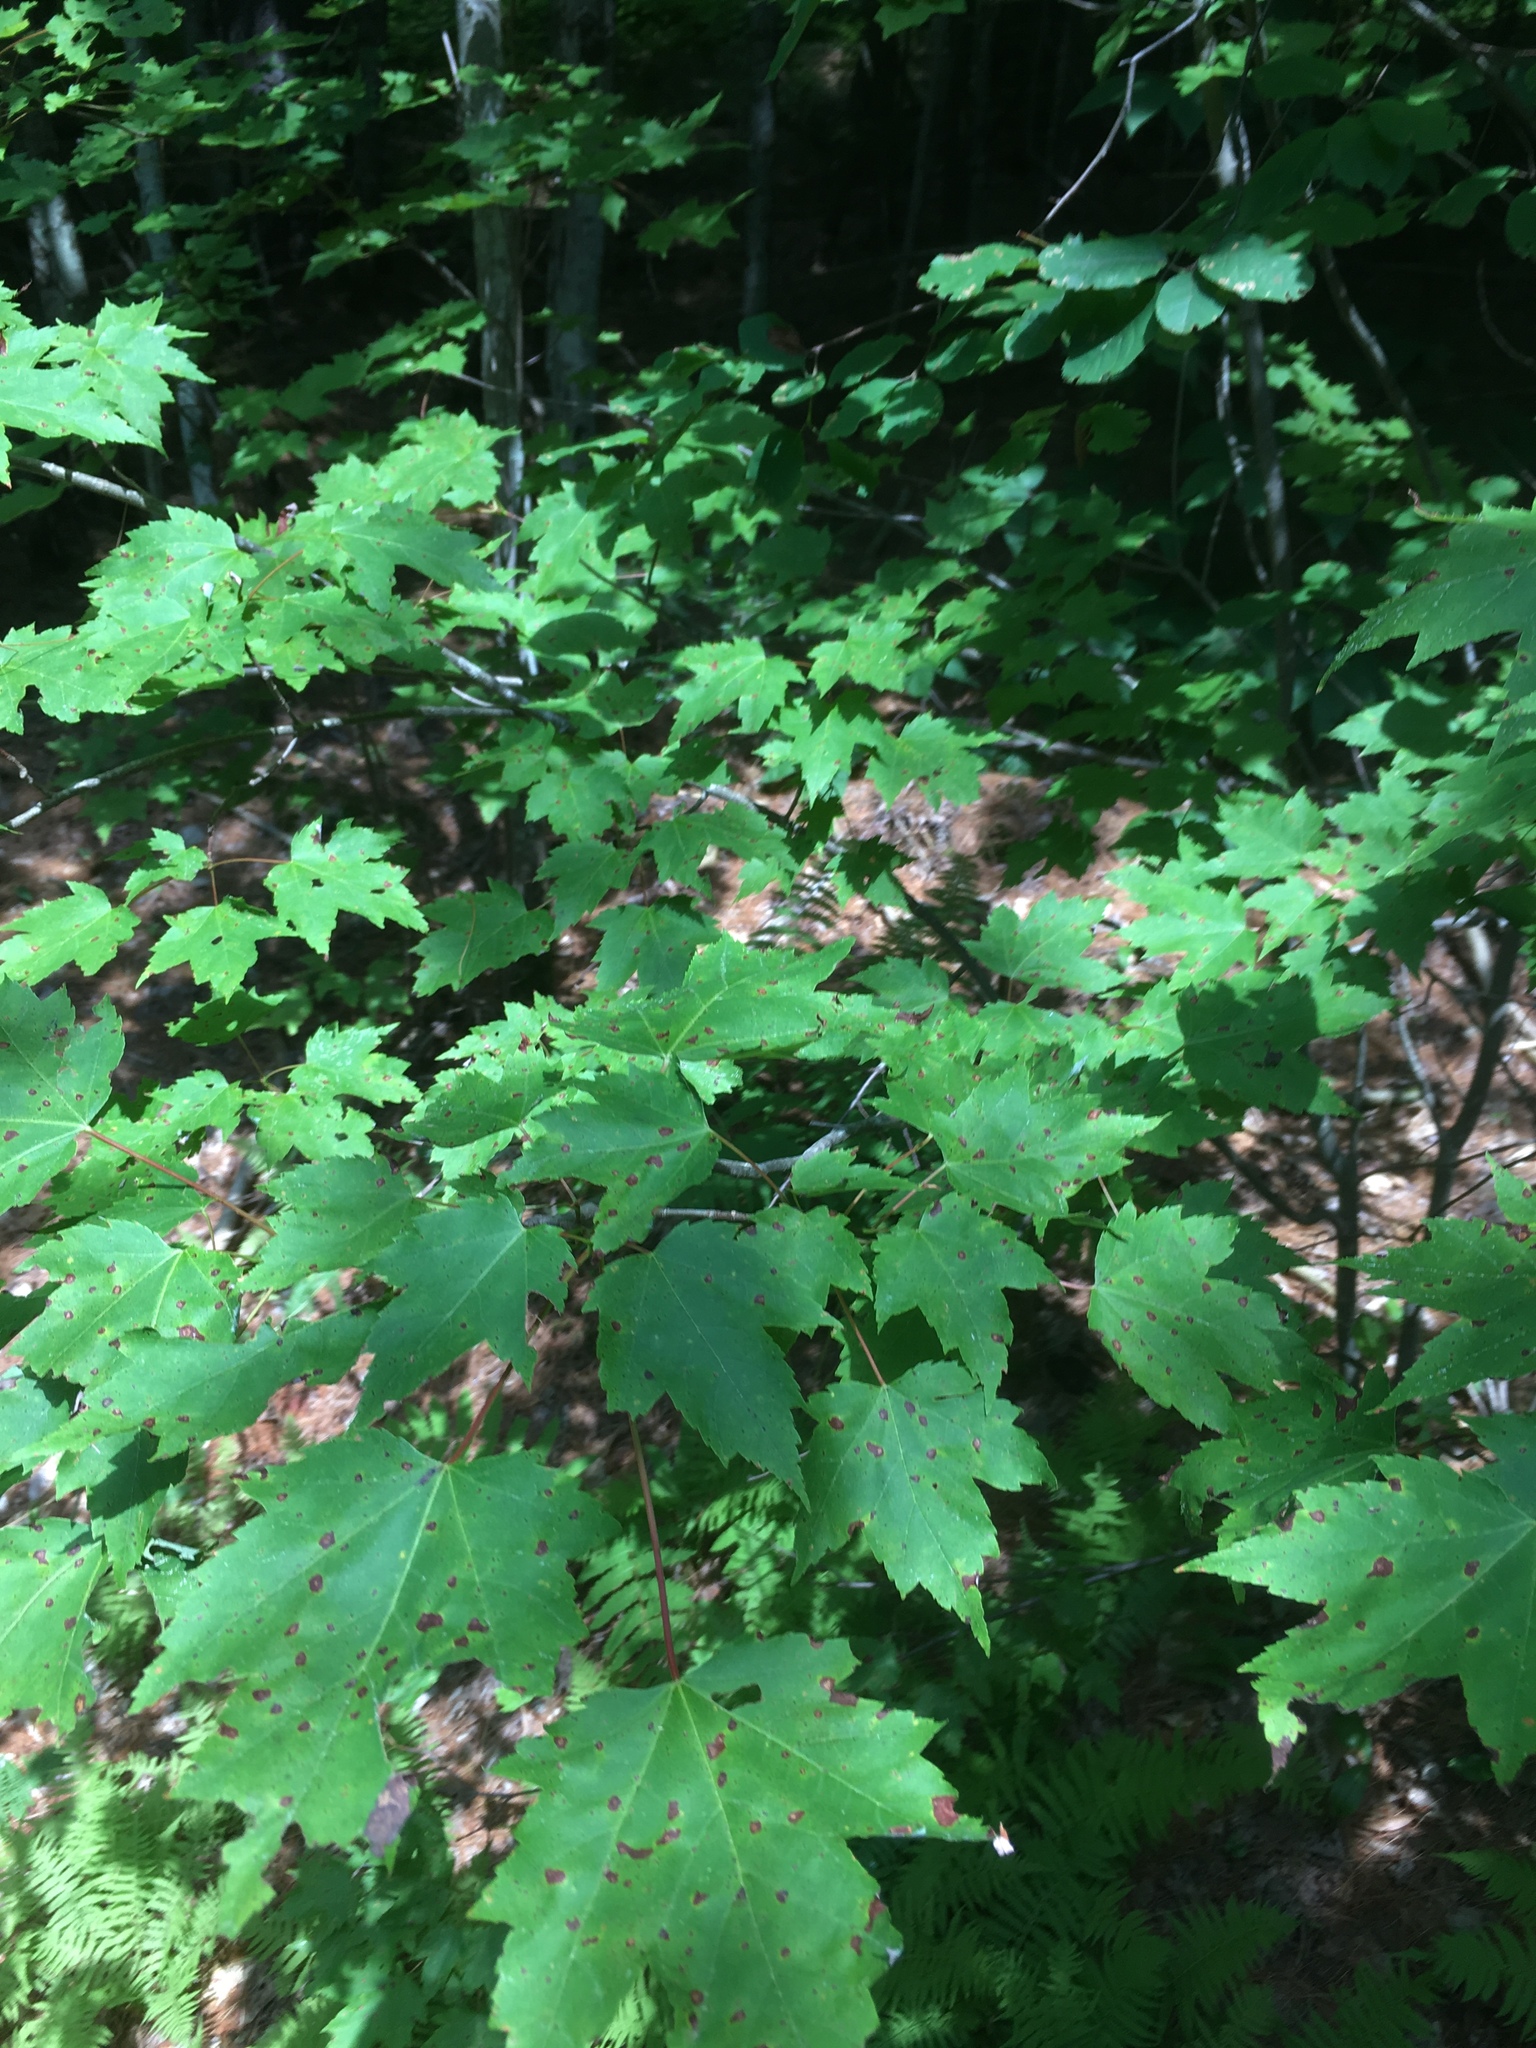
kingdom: Plantae
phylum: Tracheophyta
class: Magnoliopsida
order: Sapindales
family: Sapindaceae
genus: Acer
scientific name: Acer rubrum
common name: Red maple
